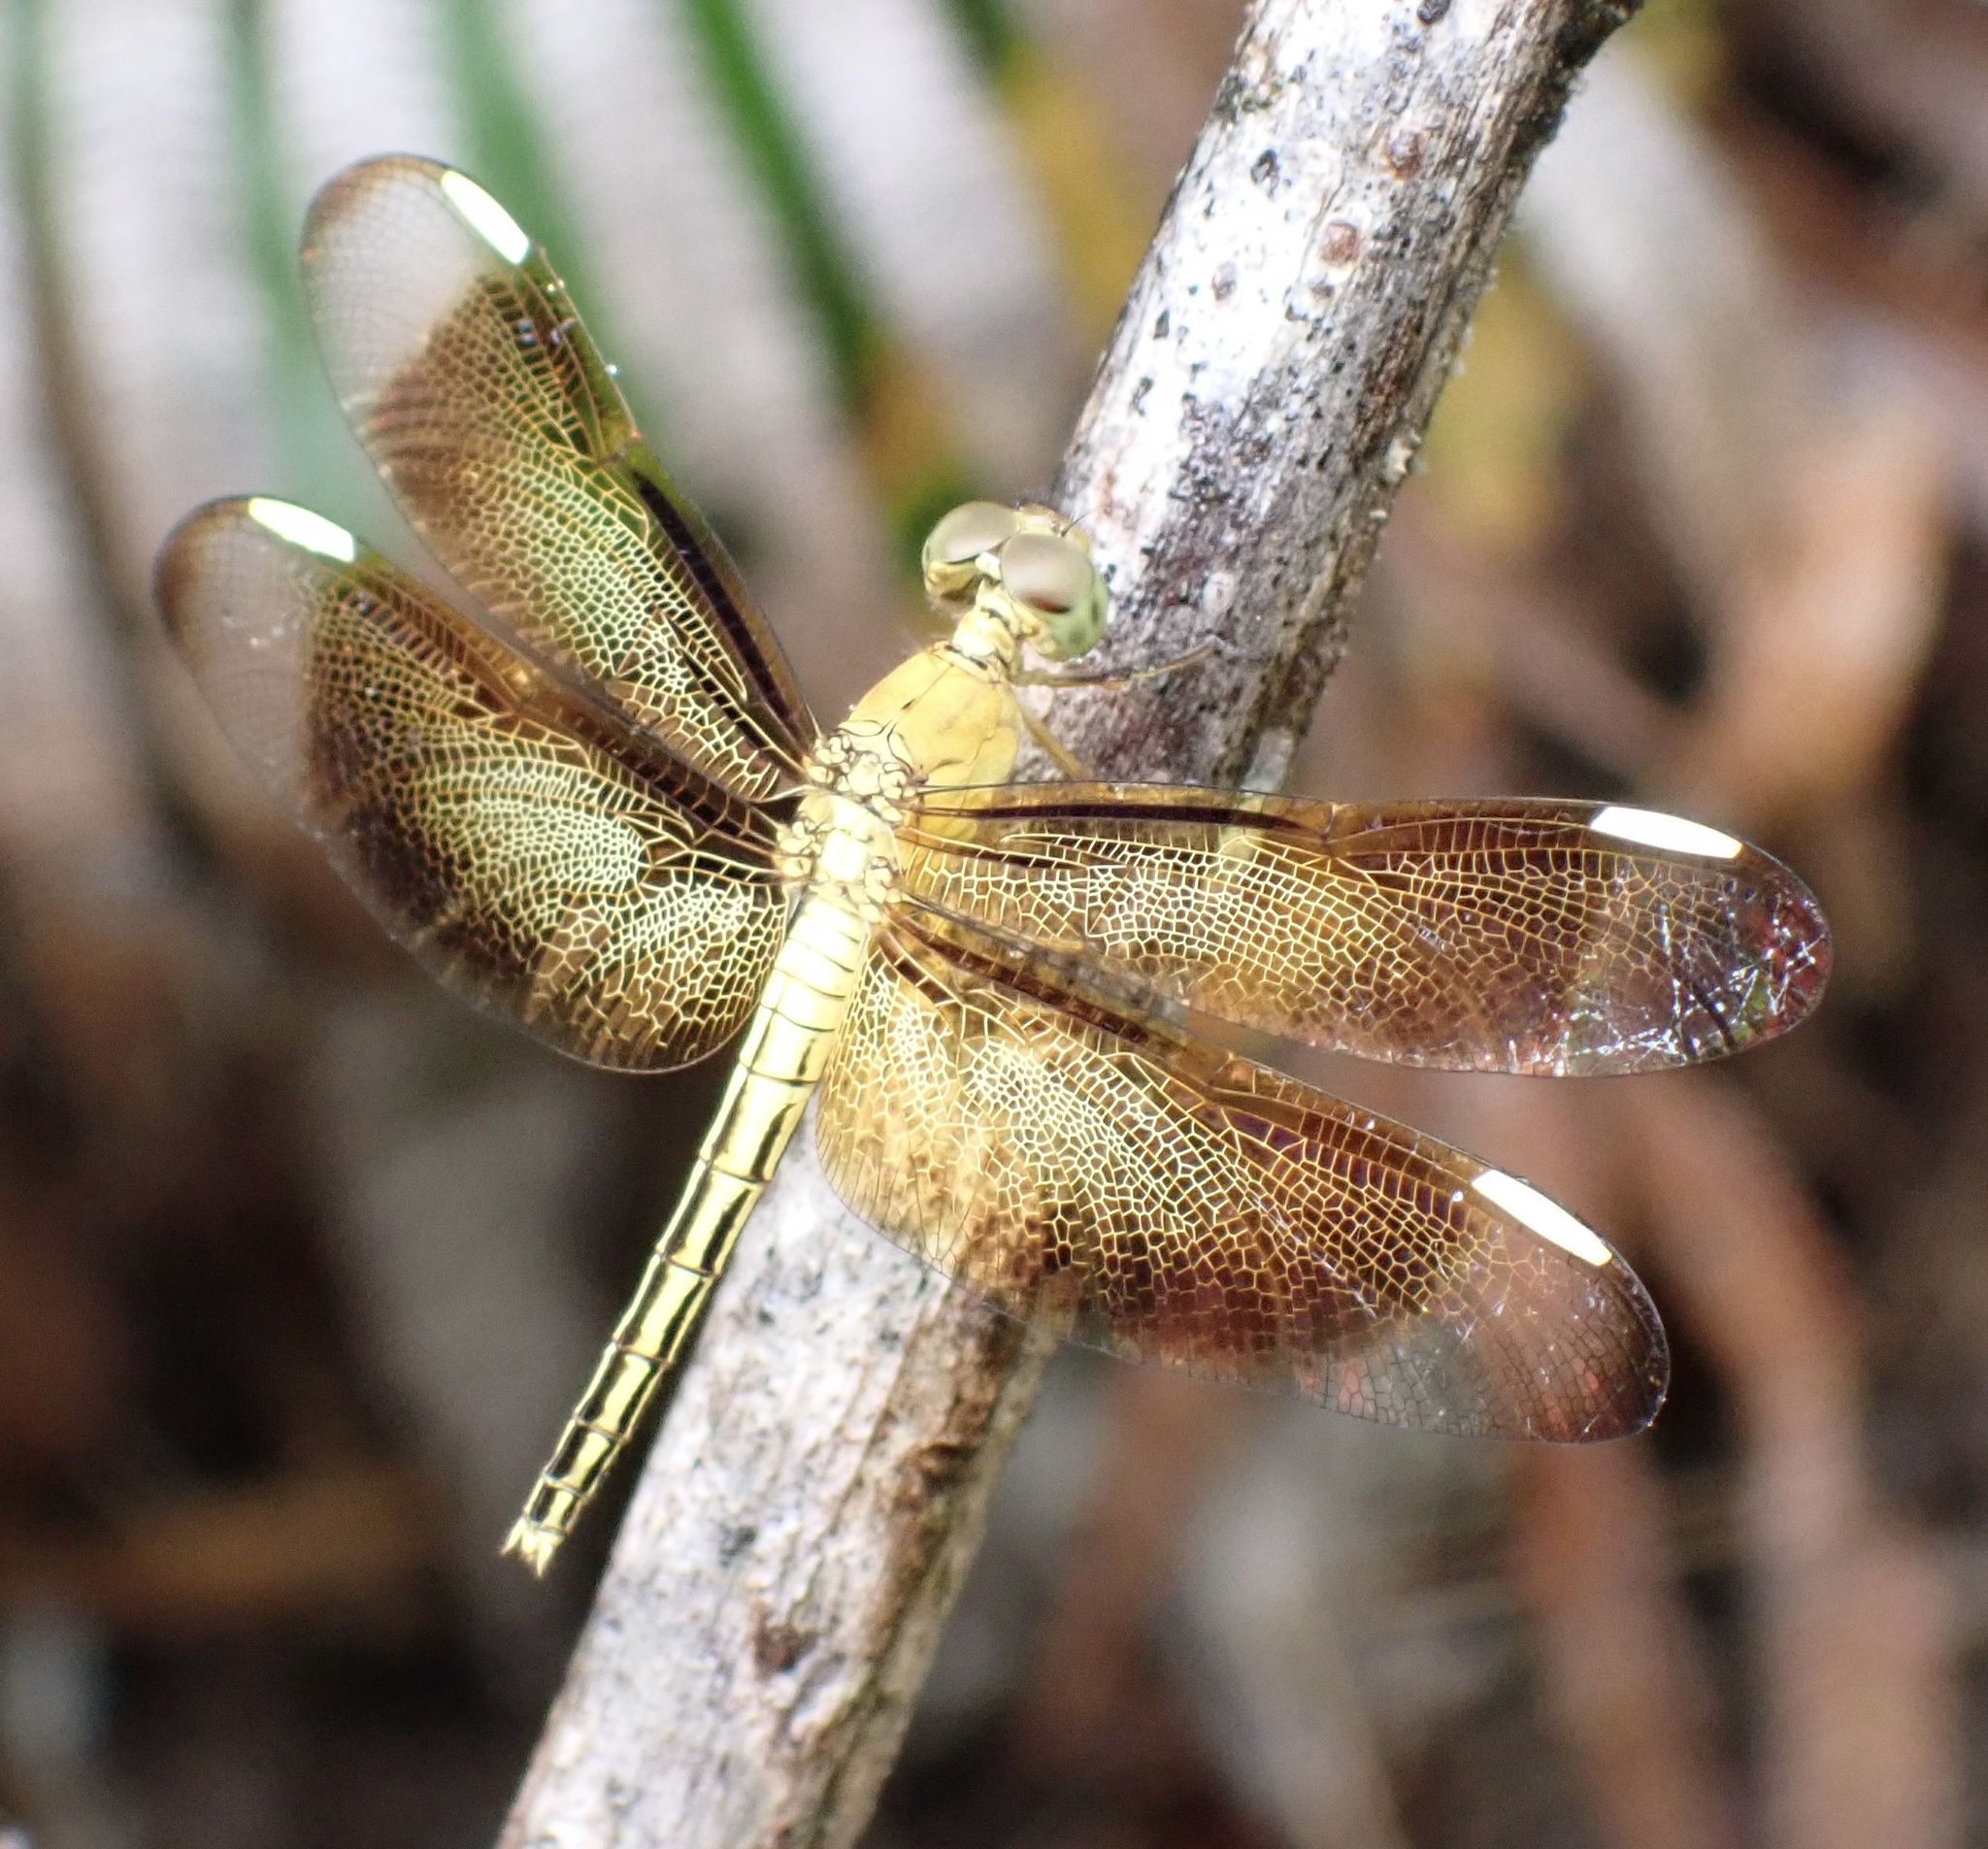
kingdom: Animalia
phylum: Arthropoda
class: Insecta
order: Odonata
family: Libellulidae
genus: Neurothemis
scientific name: Neurothemis stigmatizans
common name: Painted grasshawk
